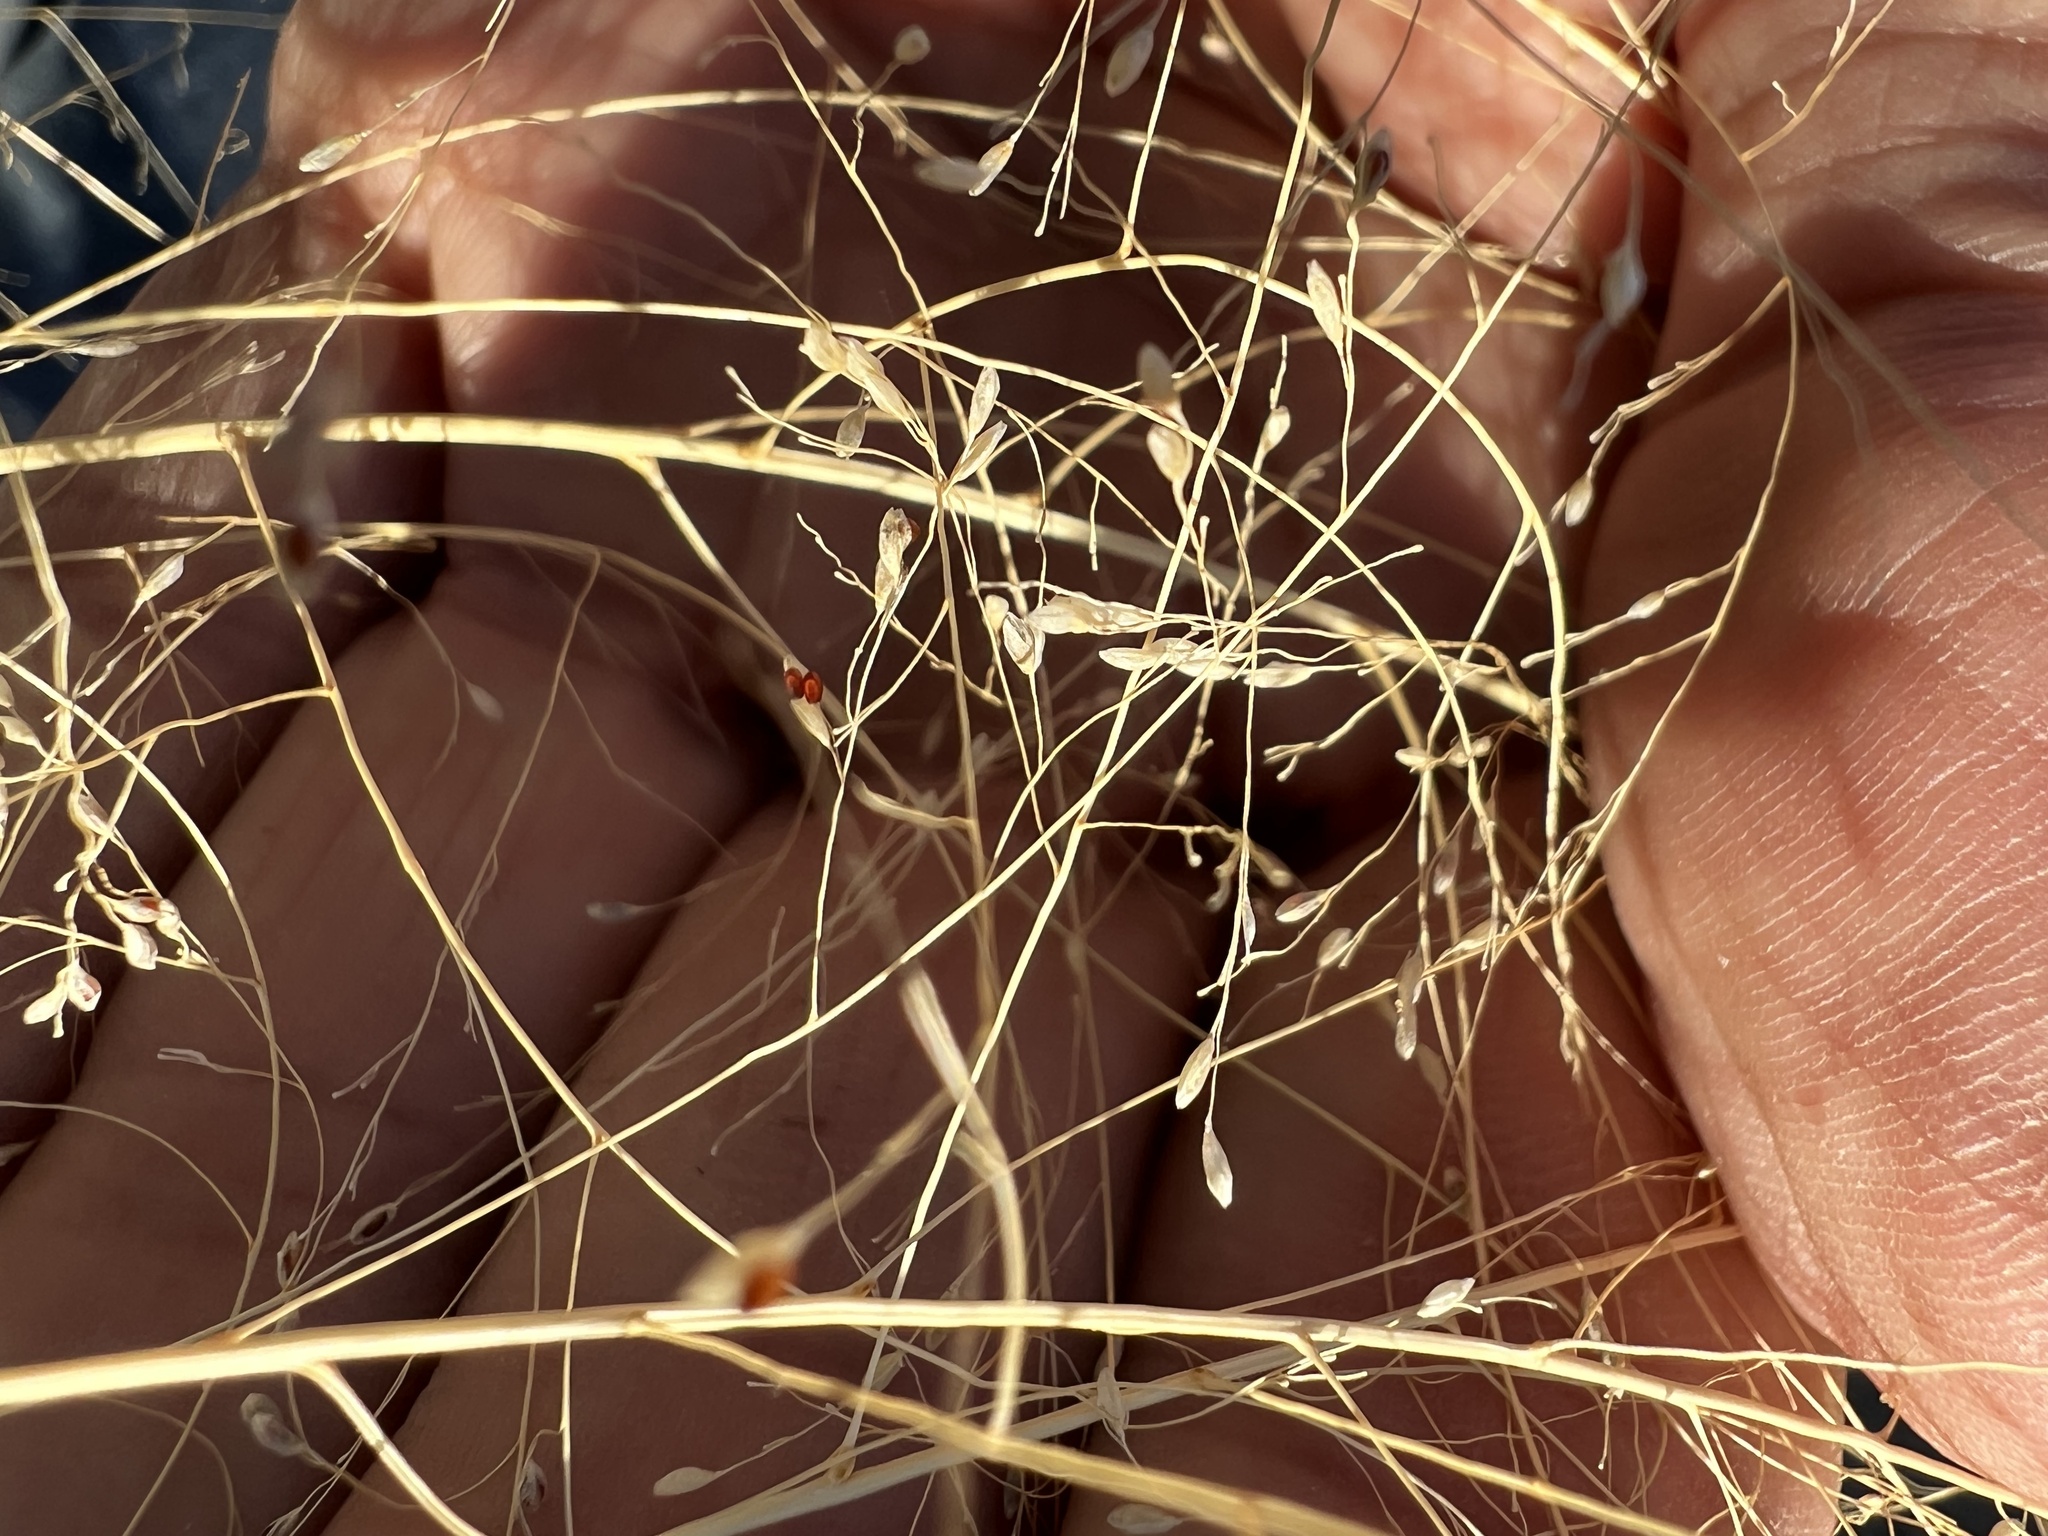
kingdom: Plantae
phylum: Tracheophyta
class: Liliopsida
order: Poales
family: Poaceae
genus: Sporobolus
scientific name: Sporobolus airoides
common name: Alkali sacaton
